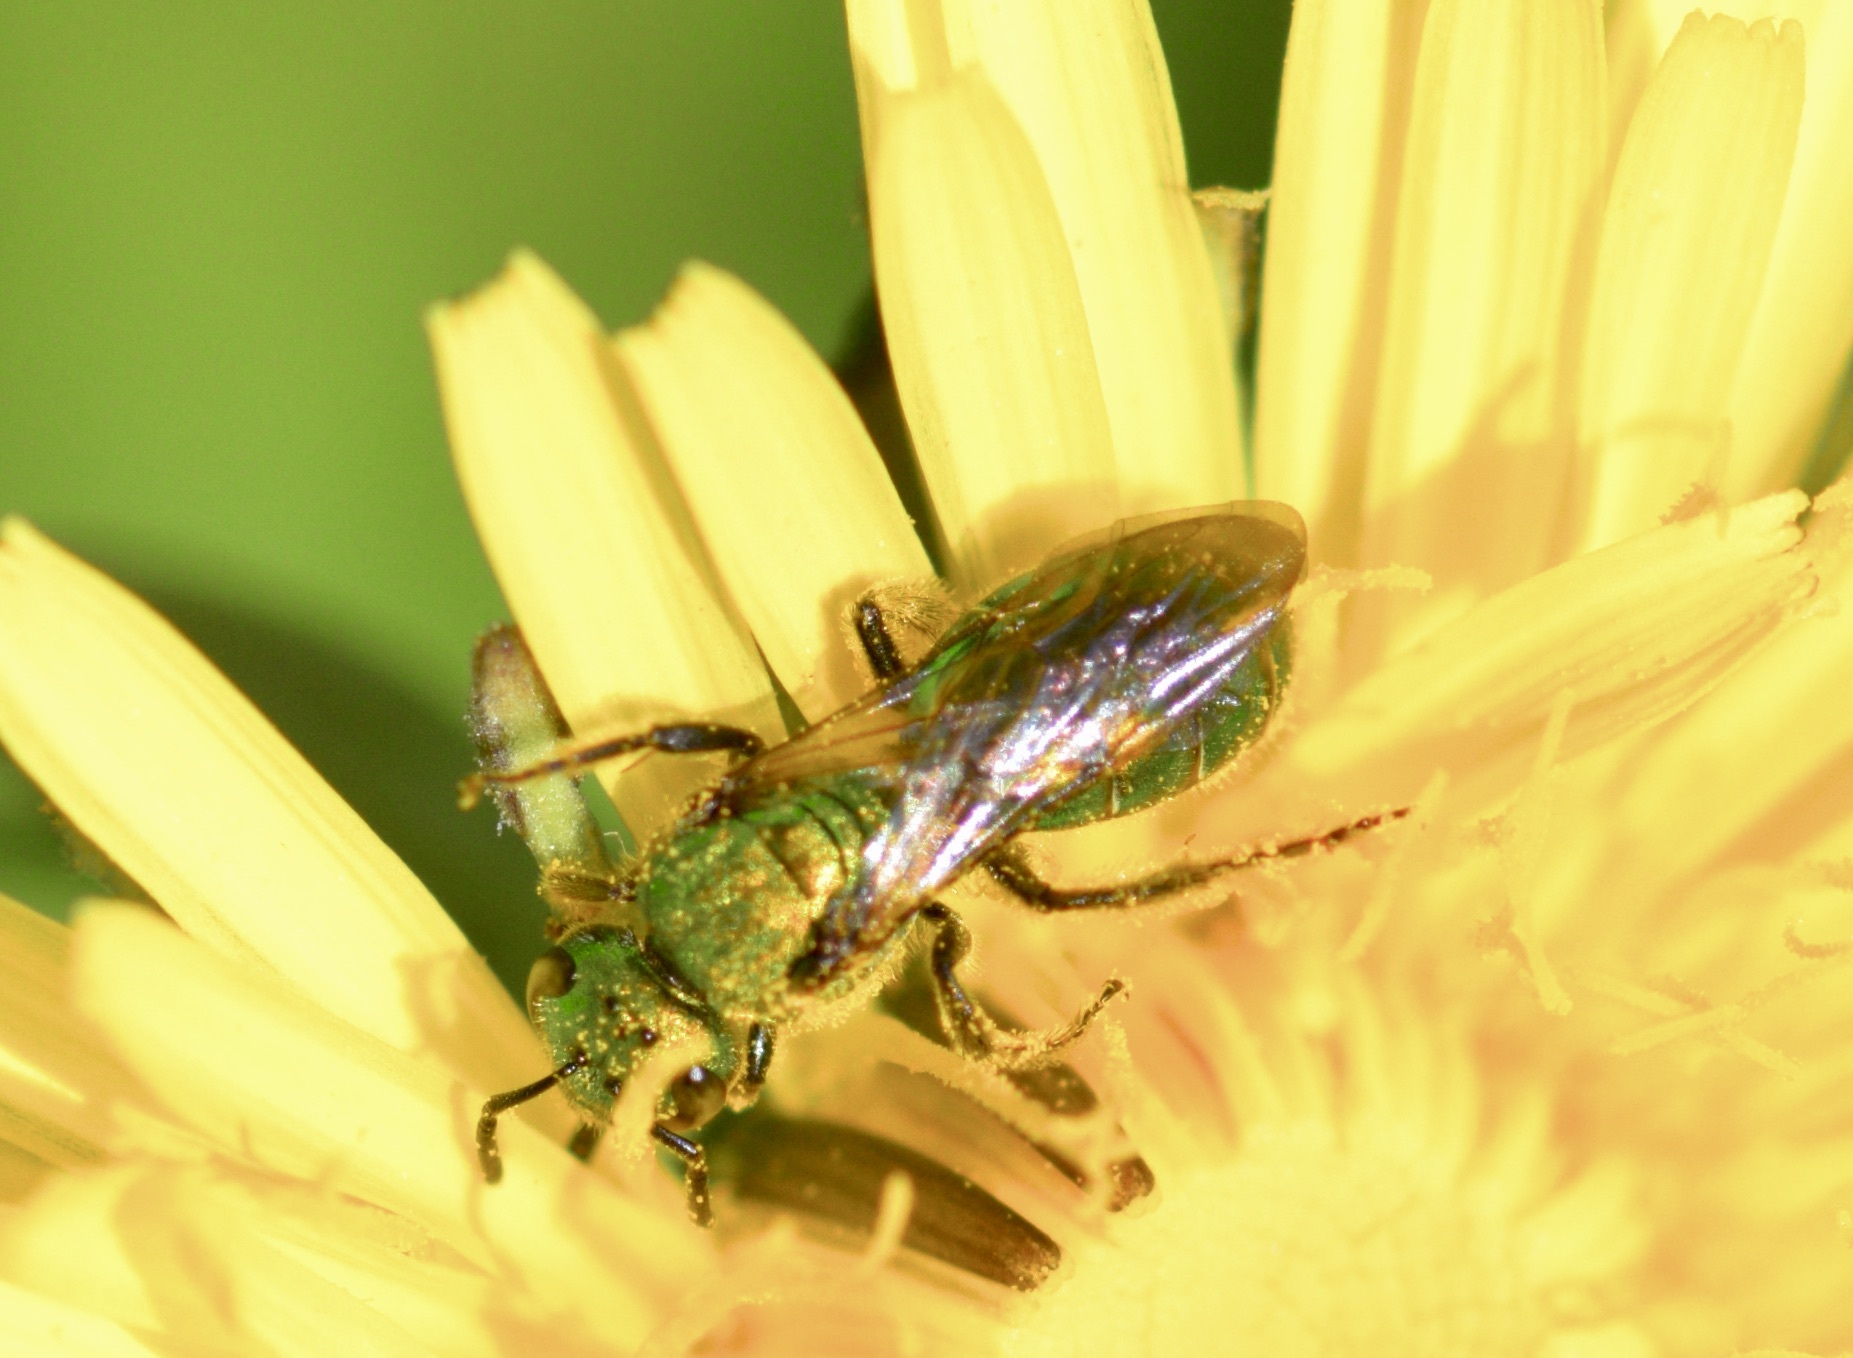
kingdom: Animalia
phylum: Arthropoda
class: Insecta
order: Hymenoptera
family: Halictidae
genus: Augochlora
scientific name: Augochlora pura
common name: Pure green sweat bee
